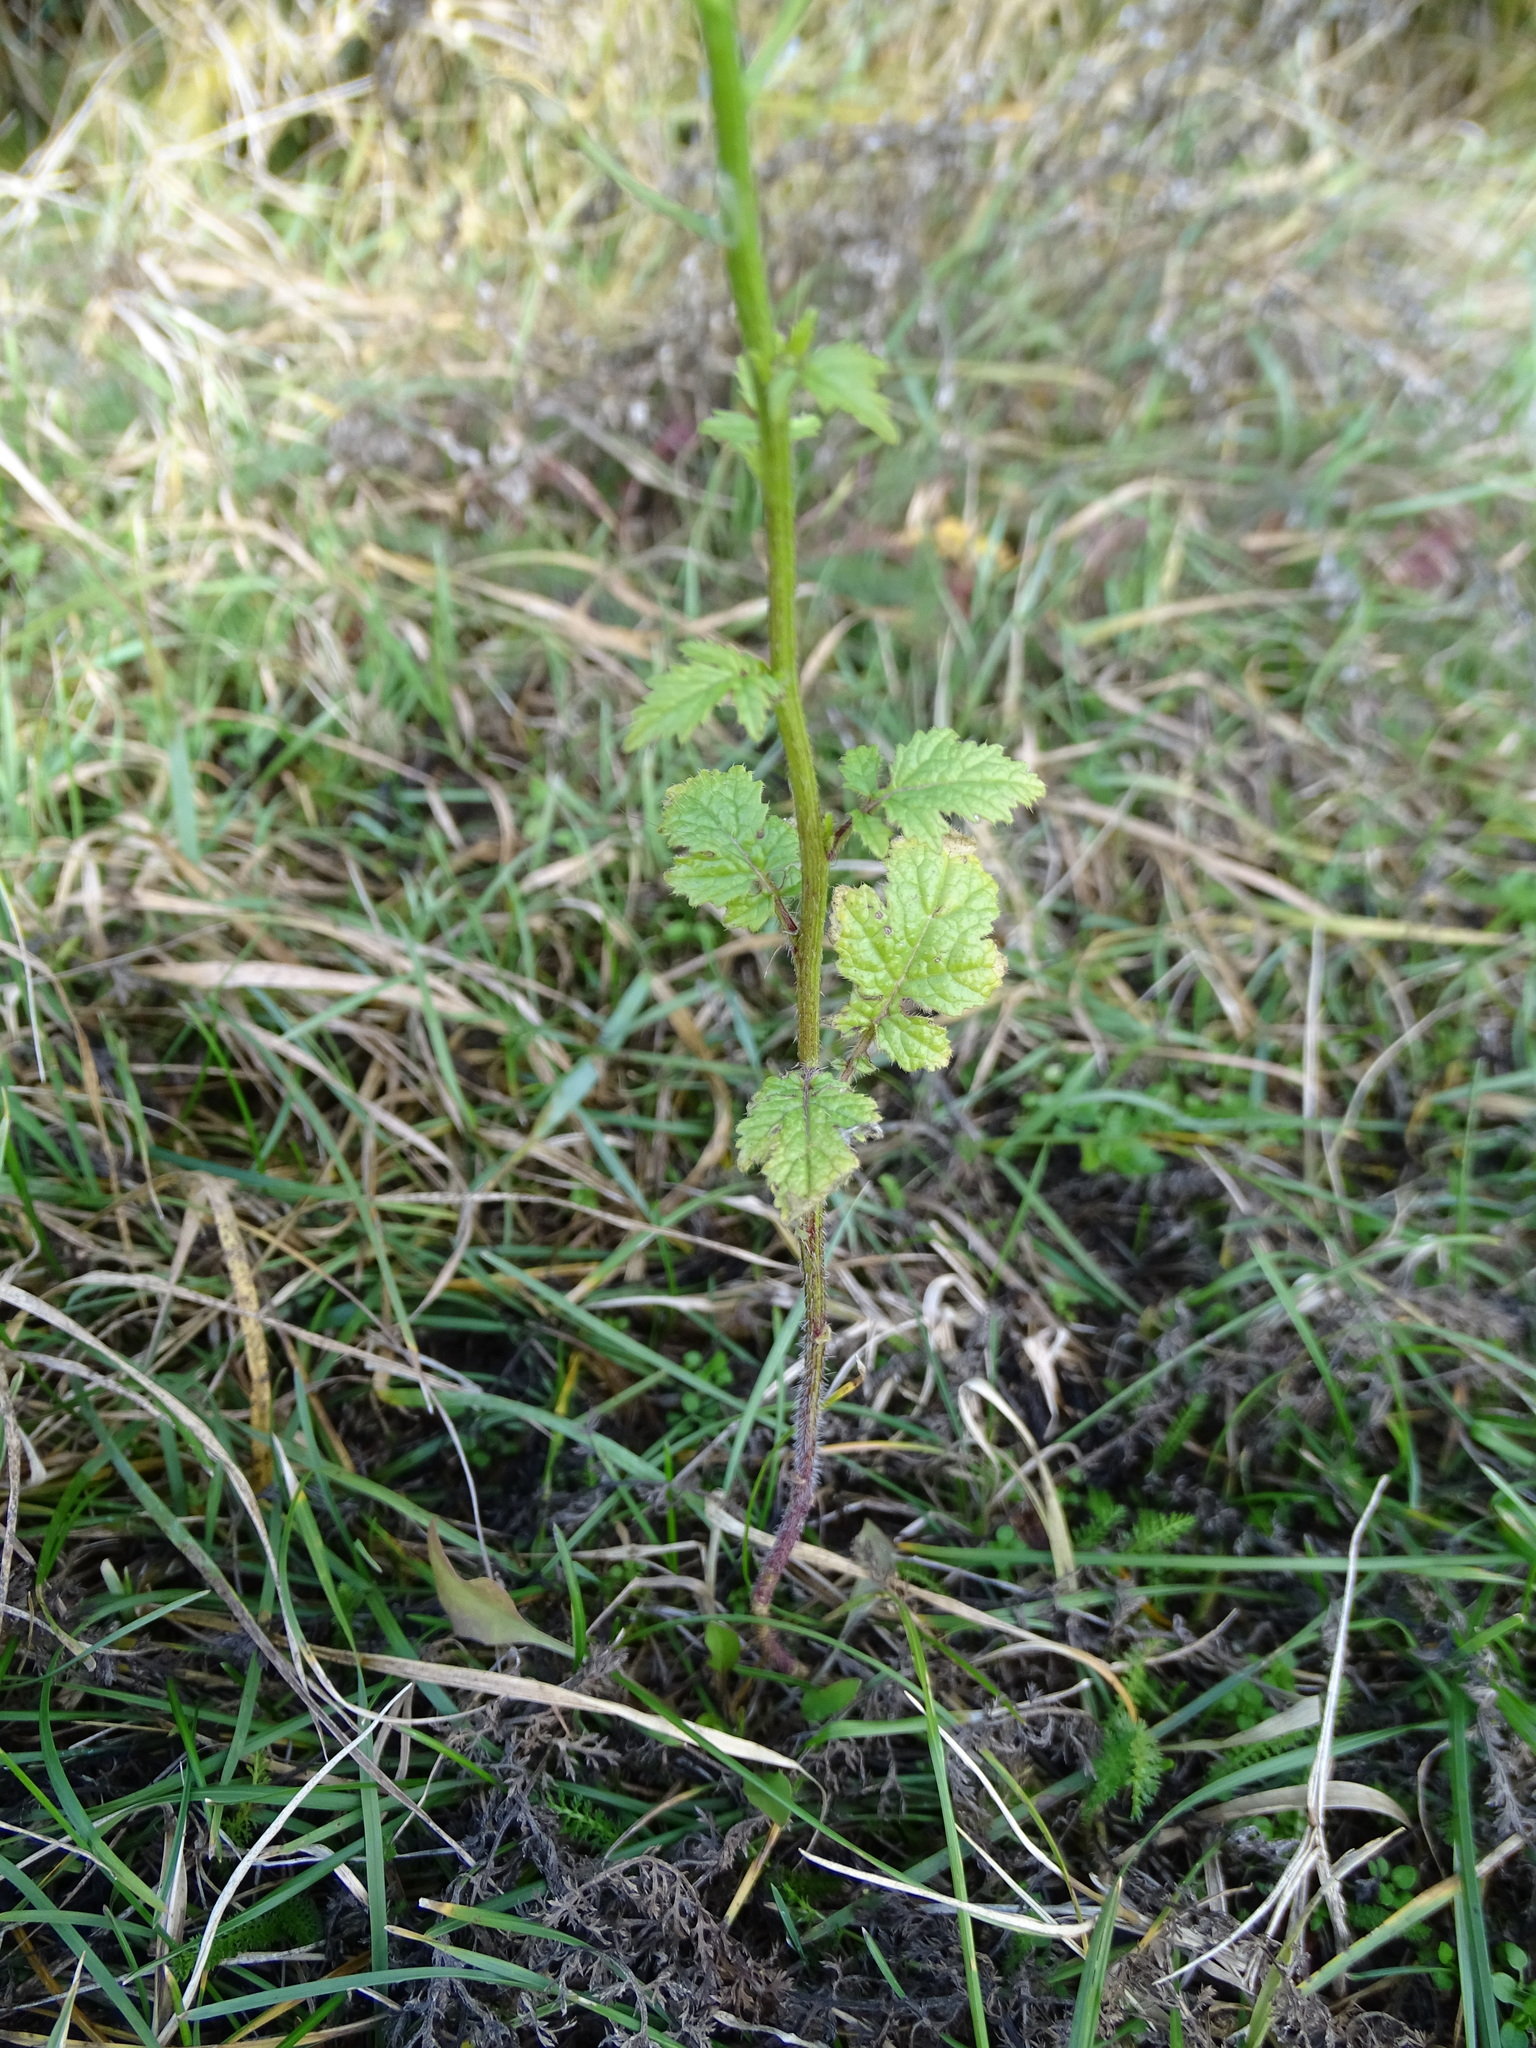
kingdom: Plantae
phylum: Tracheophyta
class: Magnoliopsida
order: Brassicales
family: Brassicaceae
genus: Sinapis
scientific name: Sinapis alba
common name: White mustard
